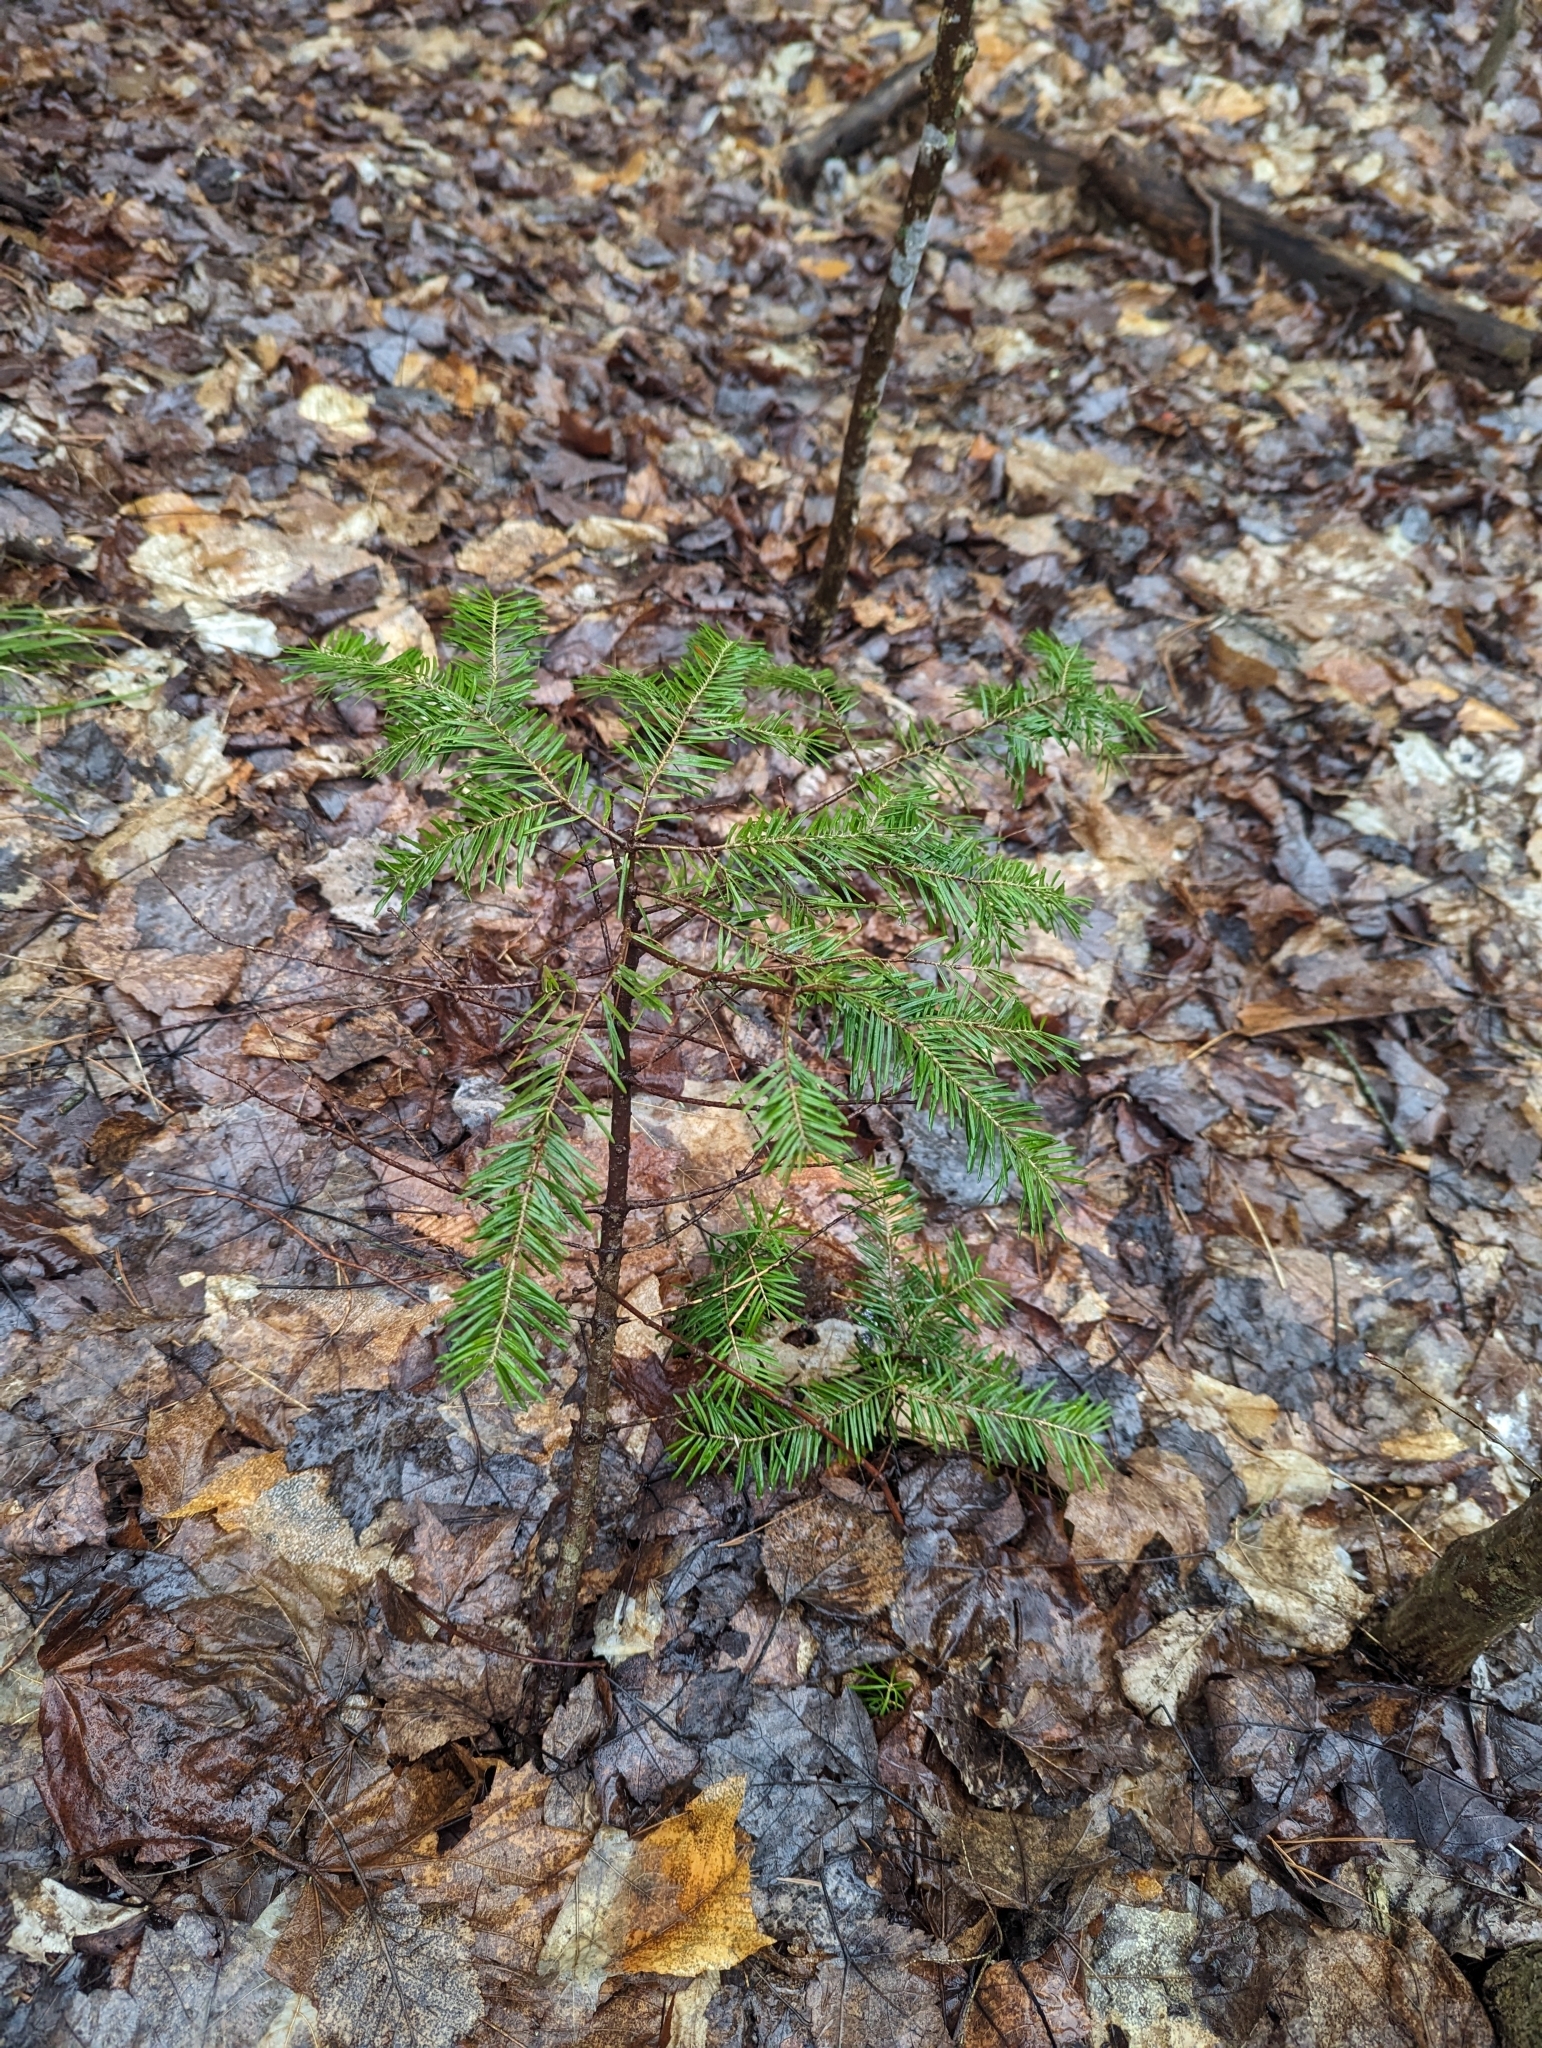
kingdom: Plantae
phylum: Tracheophyta
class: Pinopsida
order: Pinales
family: Pinaceae
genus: Abies
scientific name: Abies balsamea
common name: Balsam fir
